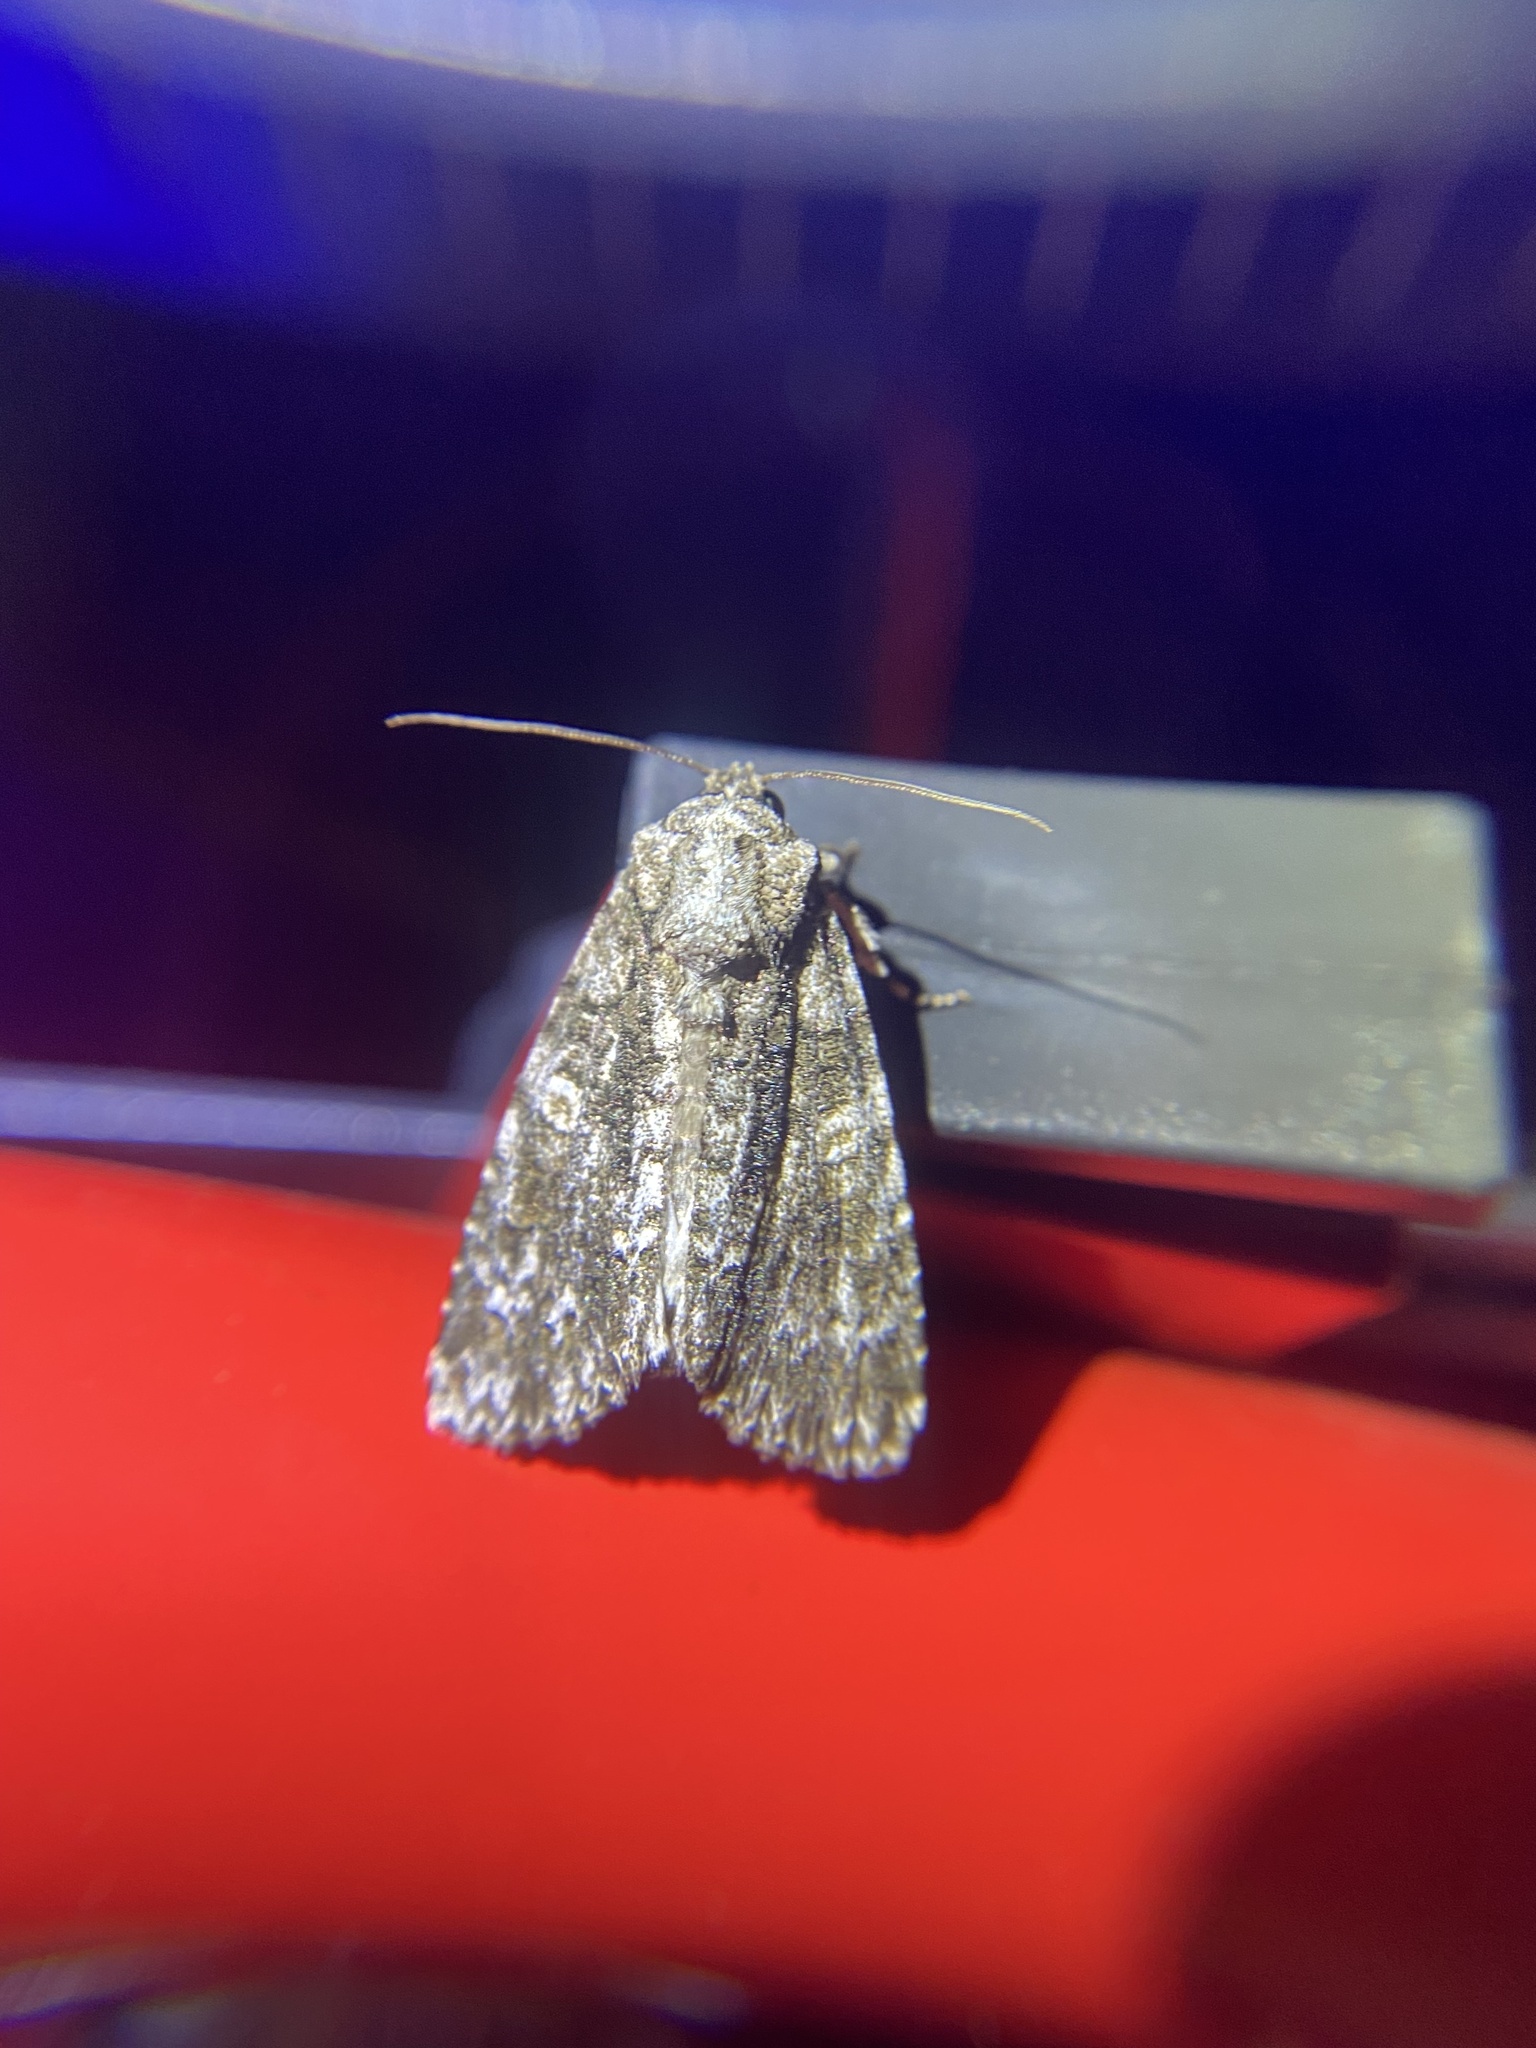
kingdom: Animalia
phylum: Arthropoda
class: Insecta
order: Lepidoptera
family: Noctuidae
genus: Acronicta
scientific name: Acronicta afflicta
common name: Afflicted dagger moth
